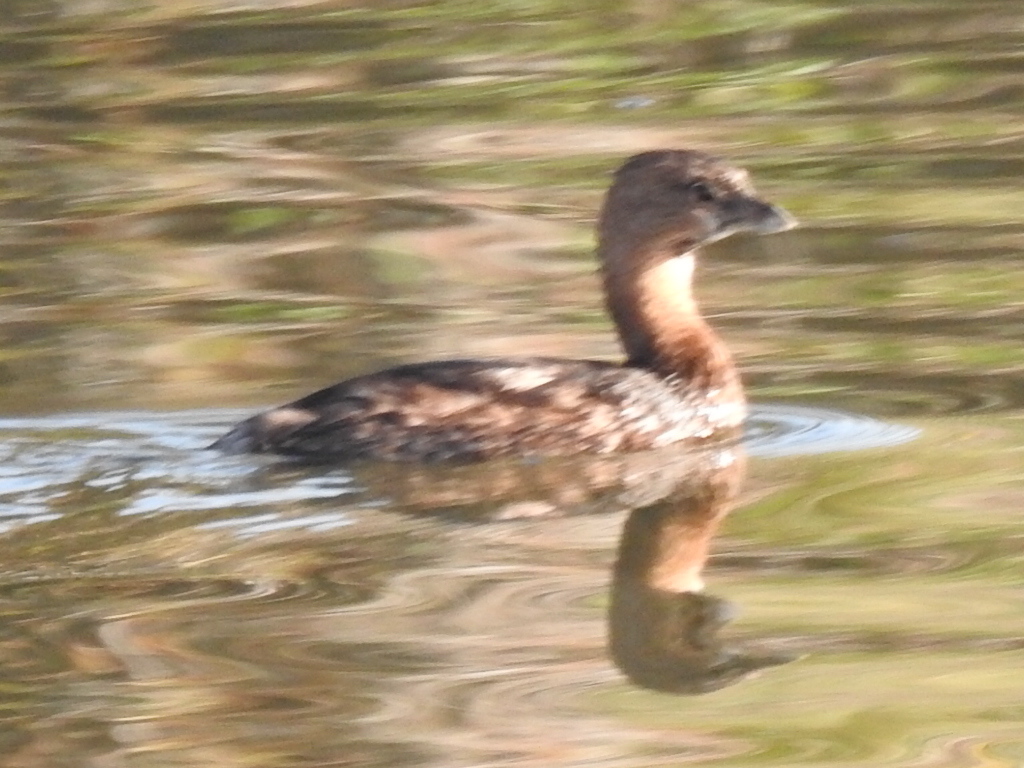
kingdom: Animalia
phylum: Chordata
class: Aves
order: Podicipediformes
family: Podicipedidae
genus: Podilymbus
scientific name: Podilymbus podiceps
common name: Pied-billed grebe
